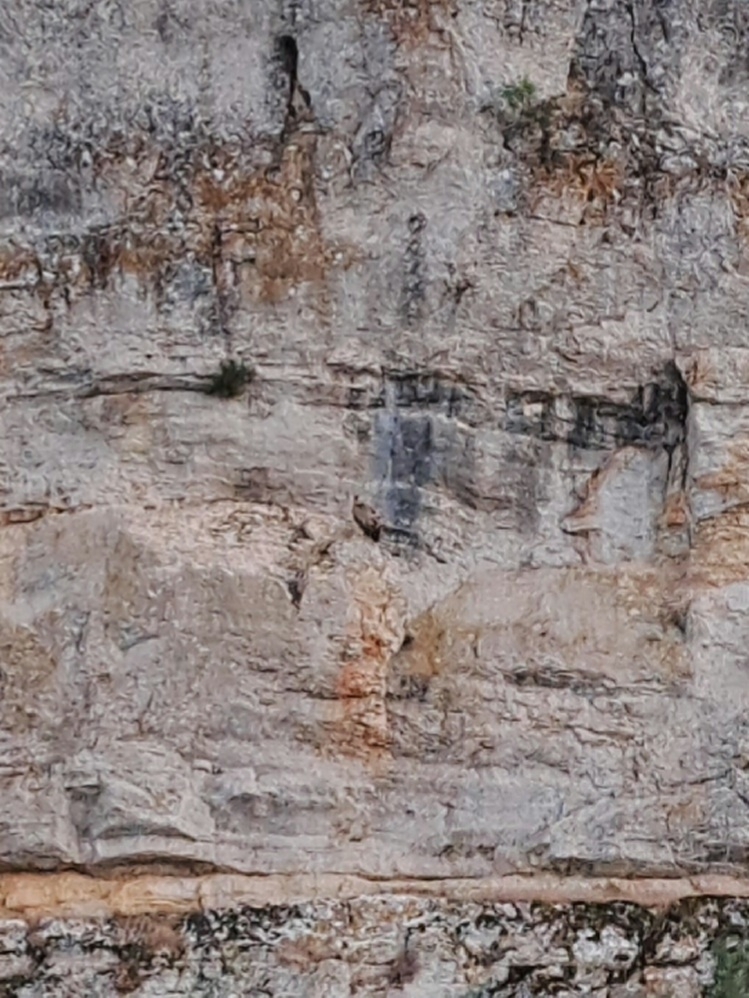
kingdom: Animalia
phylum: Chordata
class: Aves
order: Accipitriformes
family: Accipitridae
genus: Gyps
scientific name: Gyps fulvus
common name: Griffon vulture
